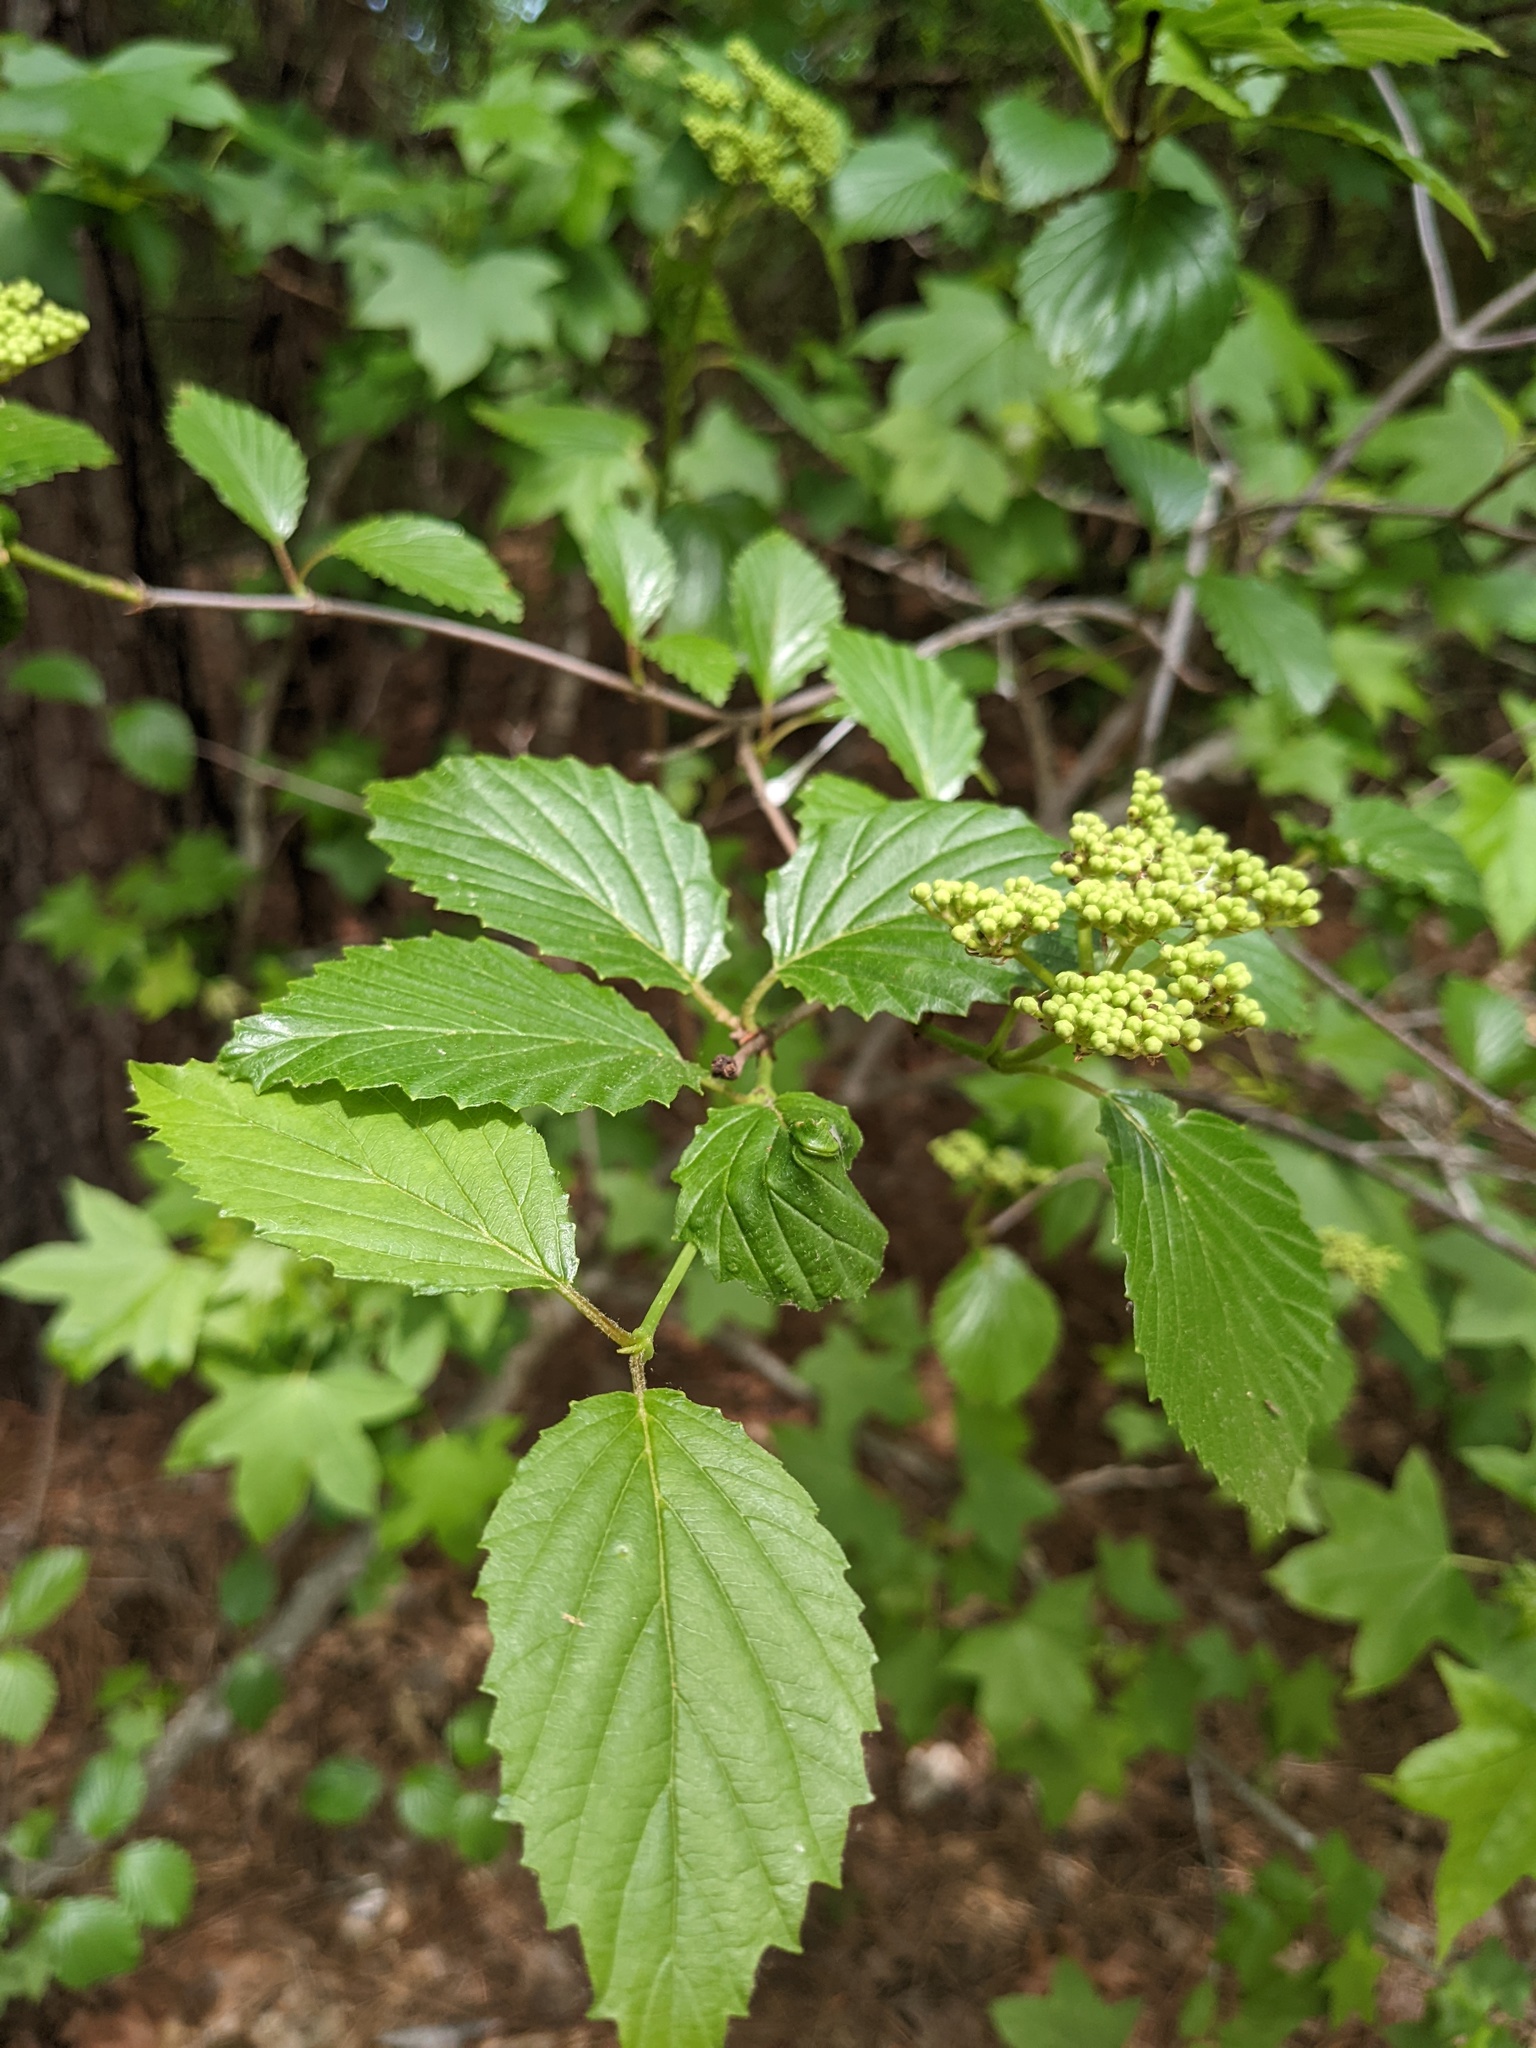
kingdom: Plantae
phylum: Tracheophyta
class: Magnoliopsida
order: Dipsacales
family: Viburnaceae
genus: Viburnum
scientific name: Viburnum dentatum
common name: Arrow-wood
